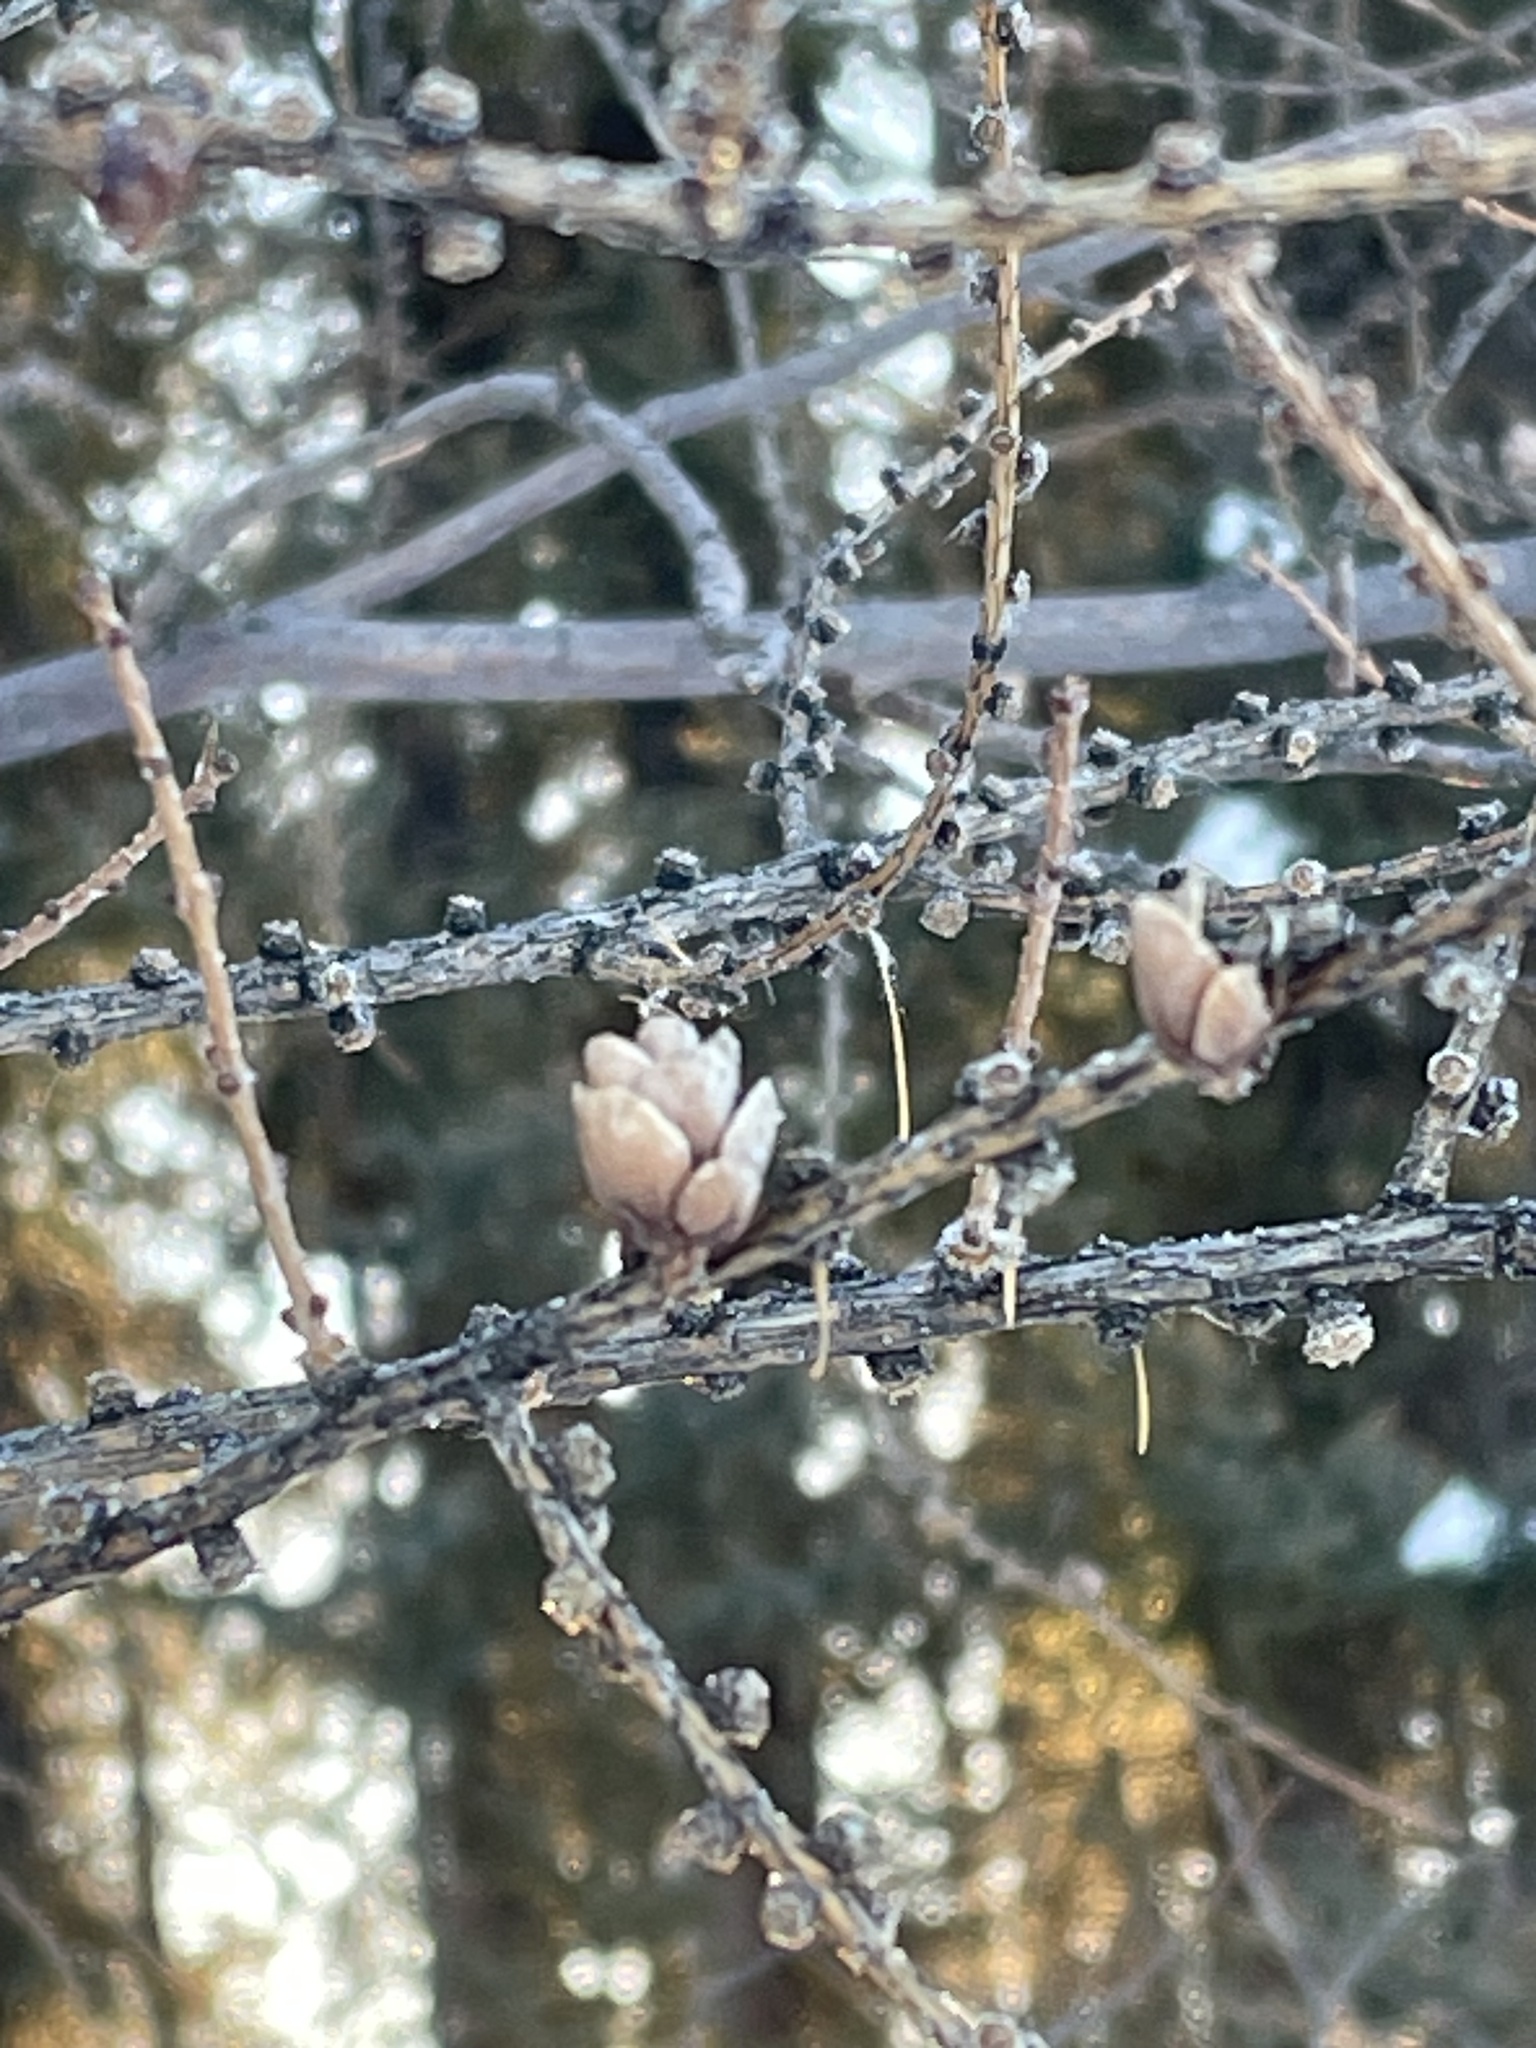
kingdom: Plantae
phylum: Tracheophyta
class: Pinopsida
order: Pinales
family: Pinaceae
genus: Larix
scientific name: Larix laricina
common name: American larch
